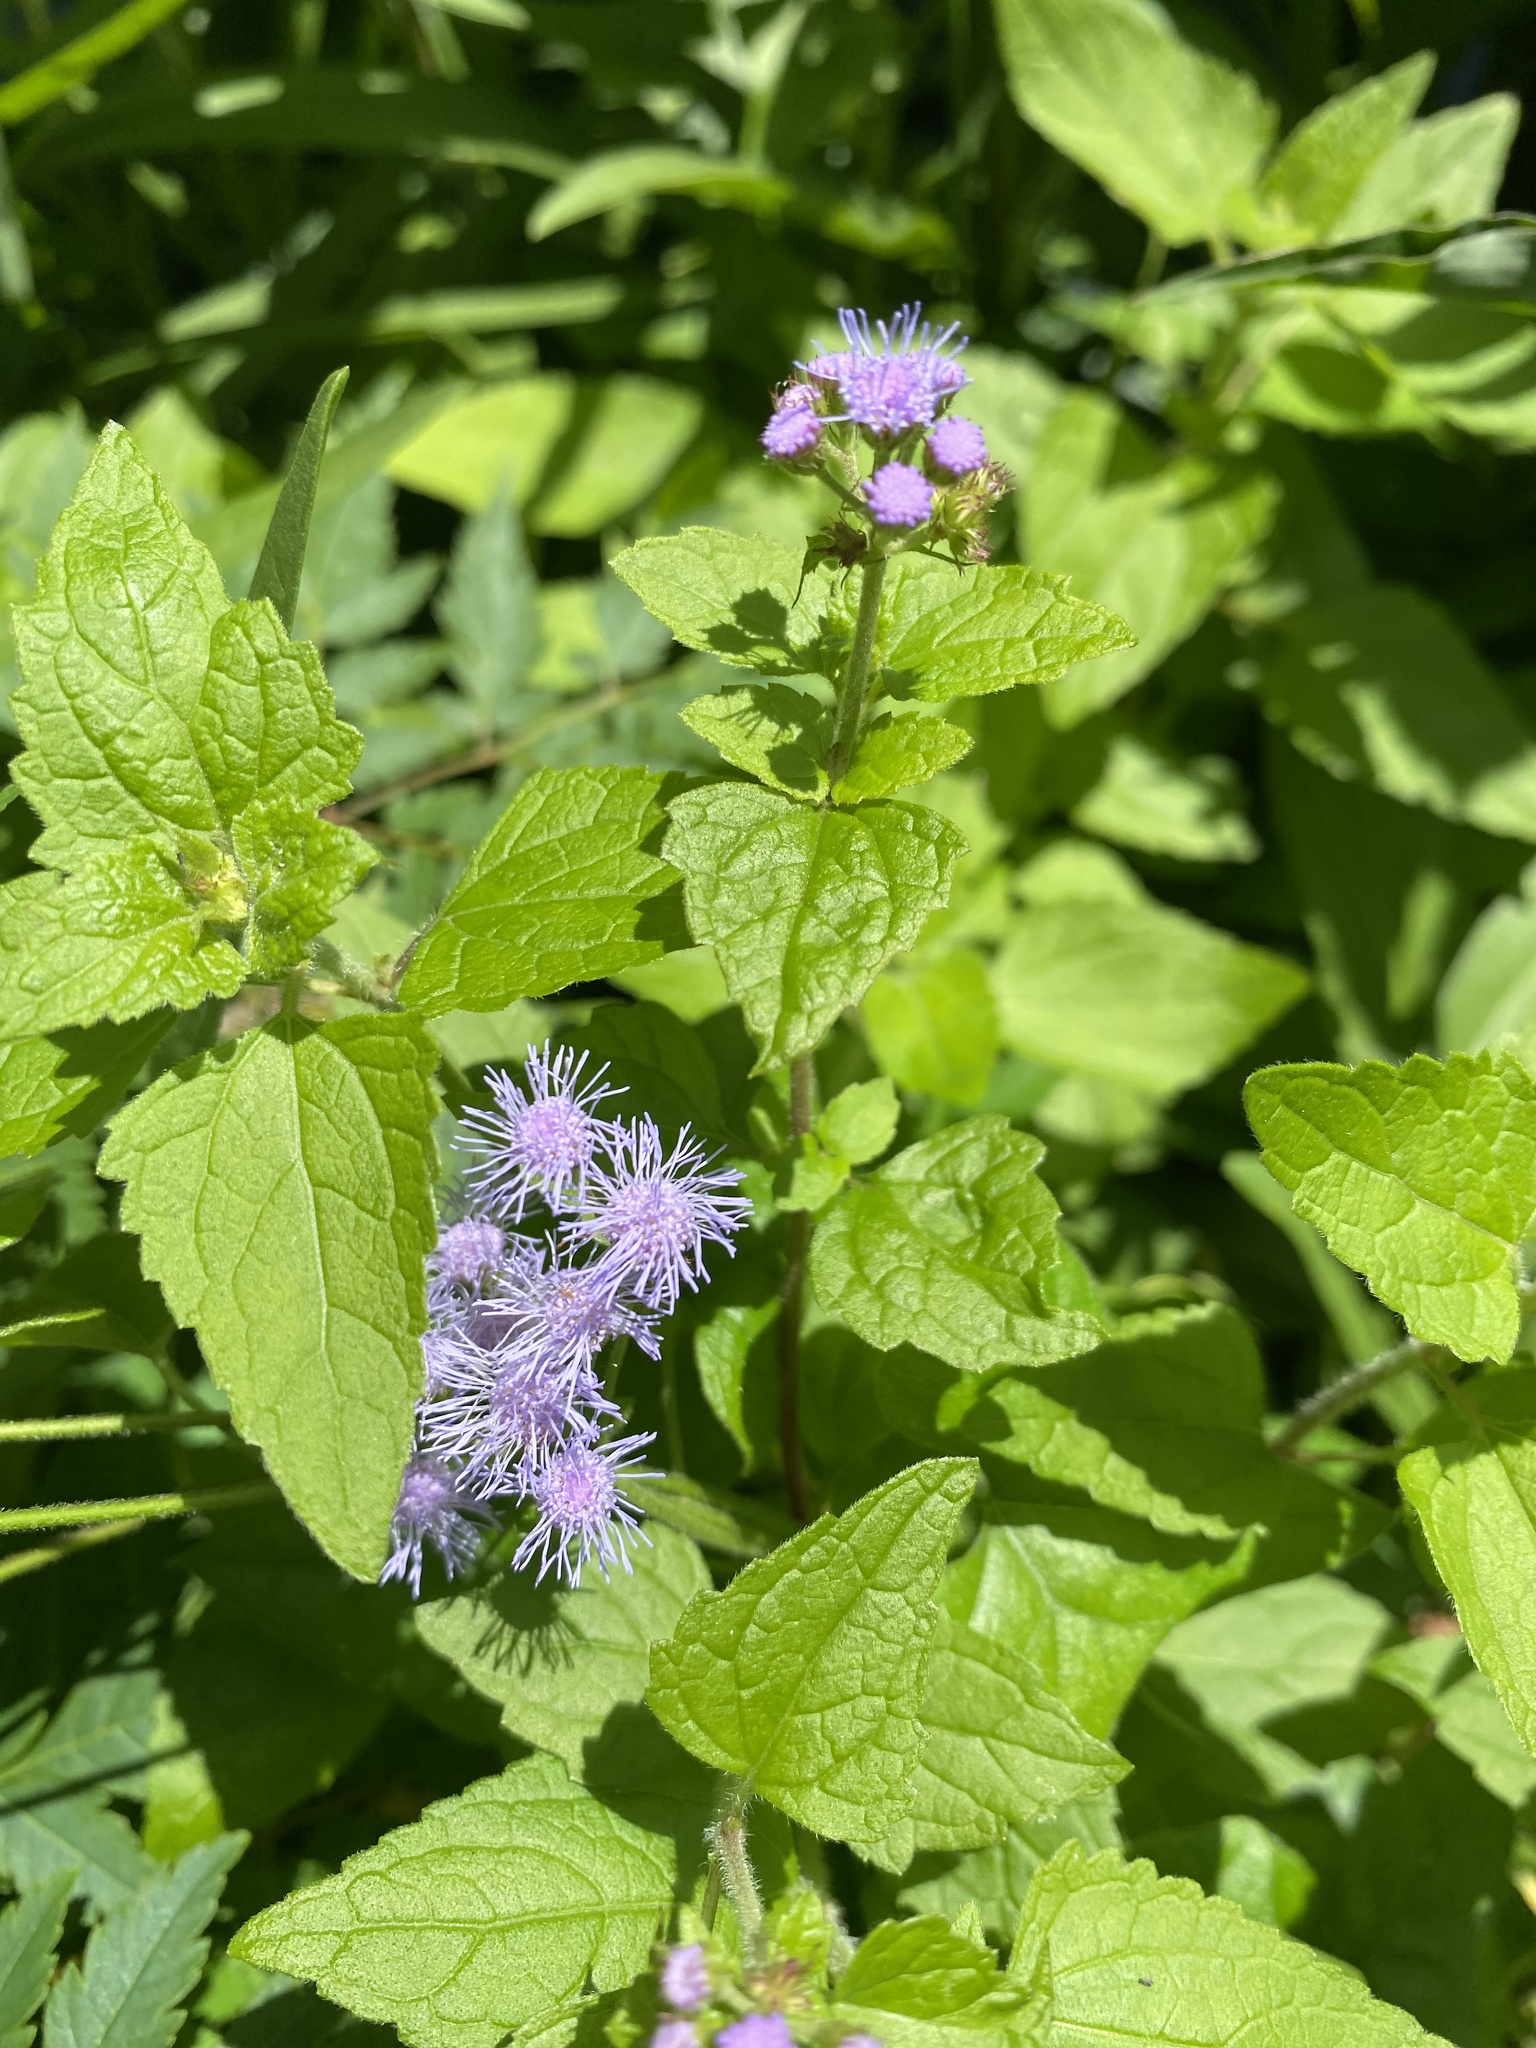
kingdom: Plantae
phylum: Tracheophyta
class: Magnoliopsida
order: Asterales
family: Asteraceae
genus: Conoclinium
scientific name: Conoclinium coelestinum
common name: Blue mistflower
